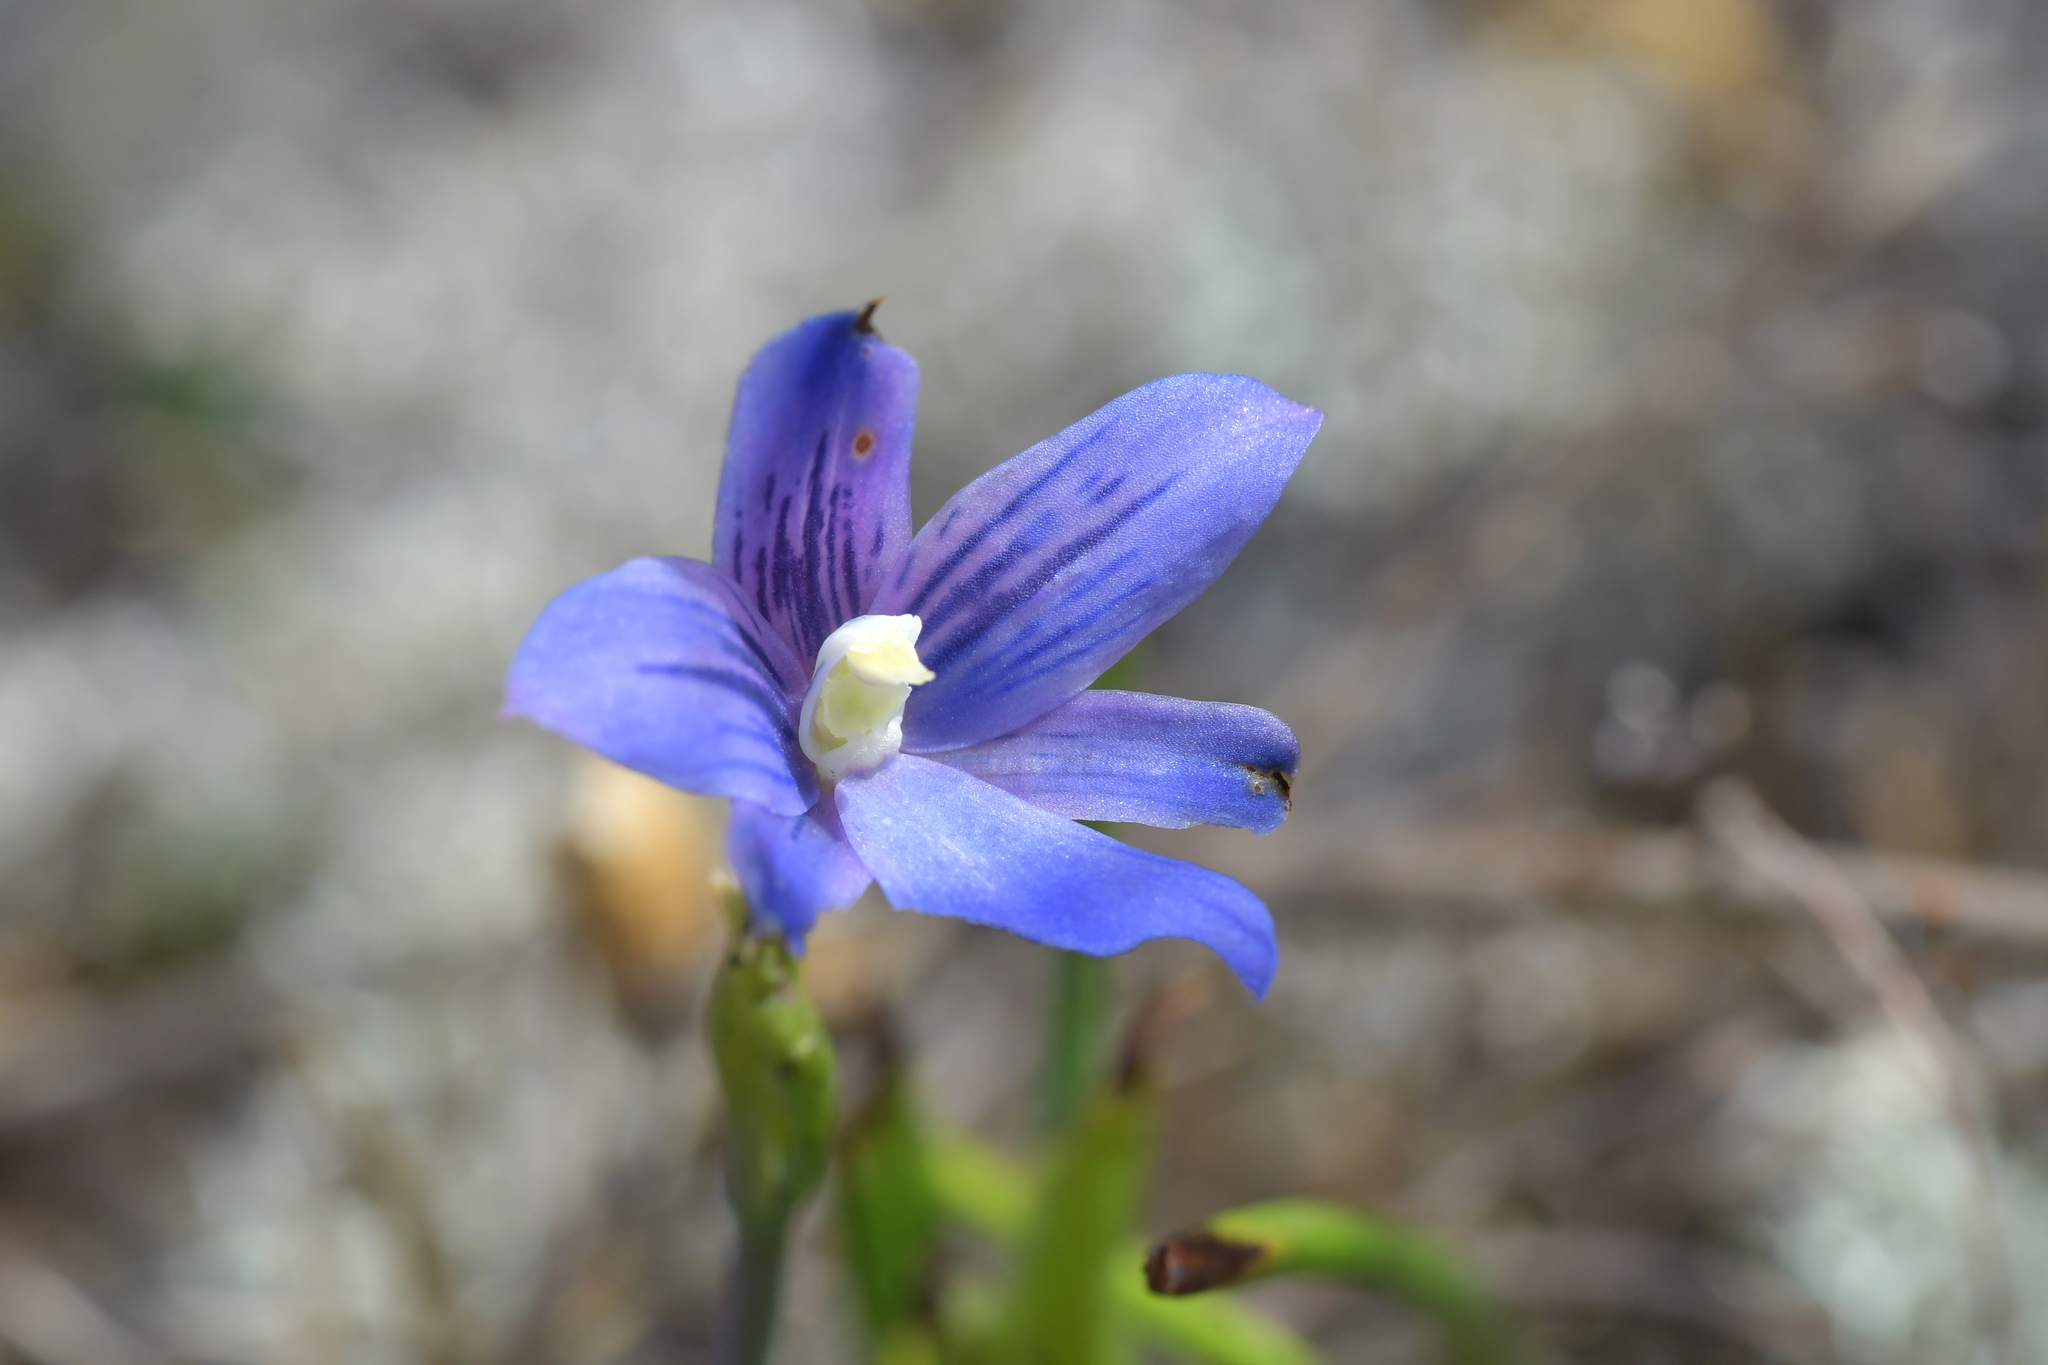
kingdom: Plantae
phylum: Tracheophyta
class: Liliopsida
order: Asparagales
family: Orchidaceae
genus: Thelymitra
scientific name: Thelymitra cyanea
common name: Blue sun-orchid
